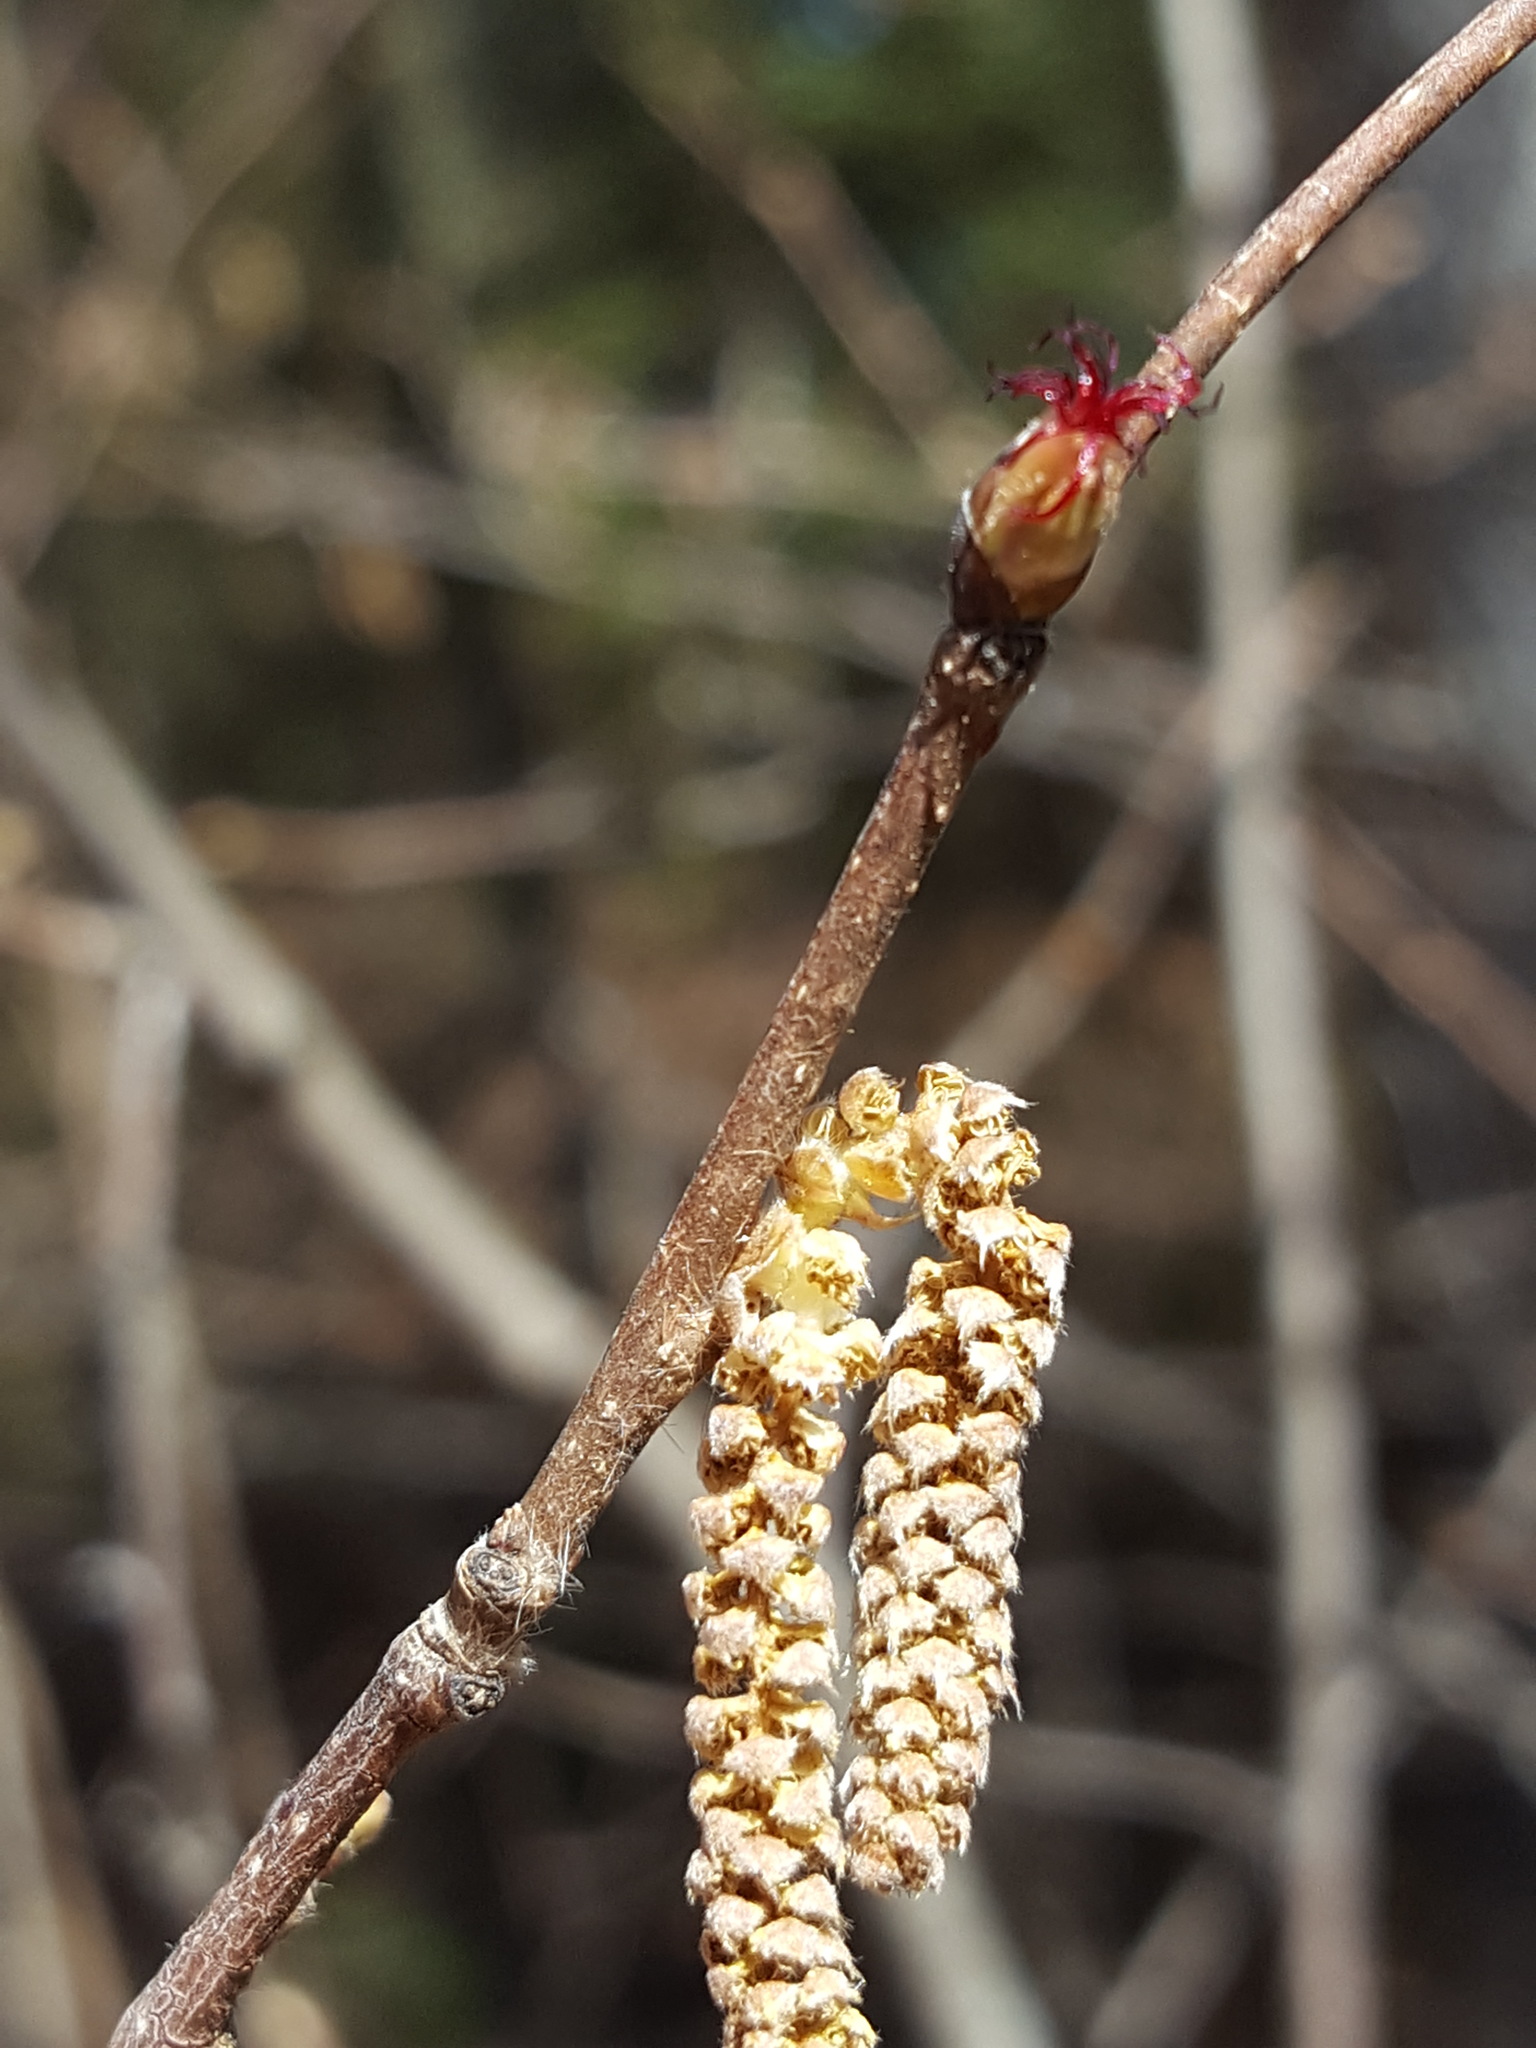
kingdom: Plantae
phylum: Tracheophyta
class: Magnoliopsida
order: Fagales
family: Betulaceae
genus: Corylus
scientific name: Corylus cornuta
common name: Beaked hazel
